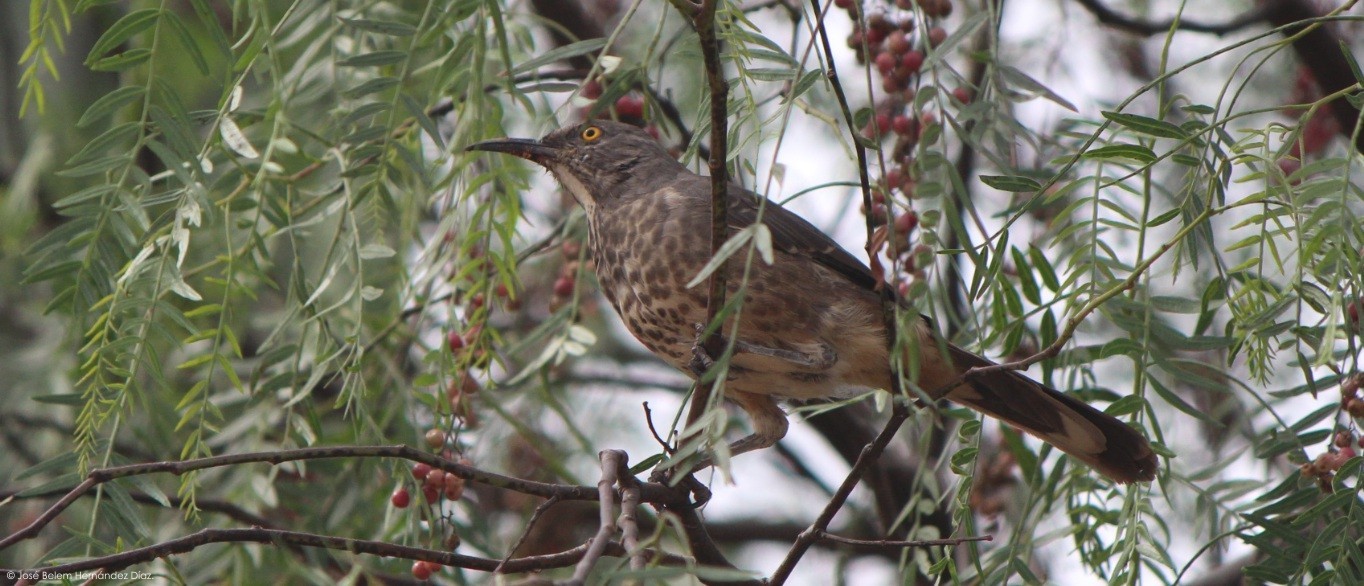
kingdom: Animalia
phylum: Chordata
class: Aves
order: Passeriformes
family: Mimidae
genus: Toxostoma
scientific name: Toxostoma curvirostre
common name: Curve-billed thrasher
